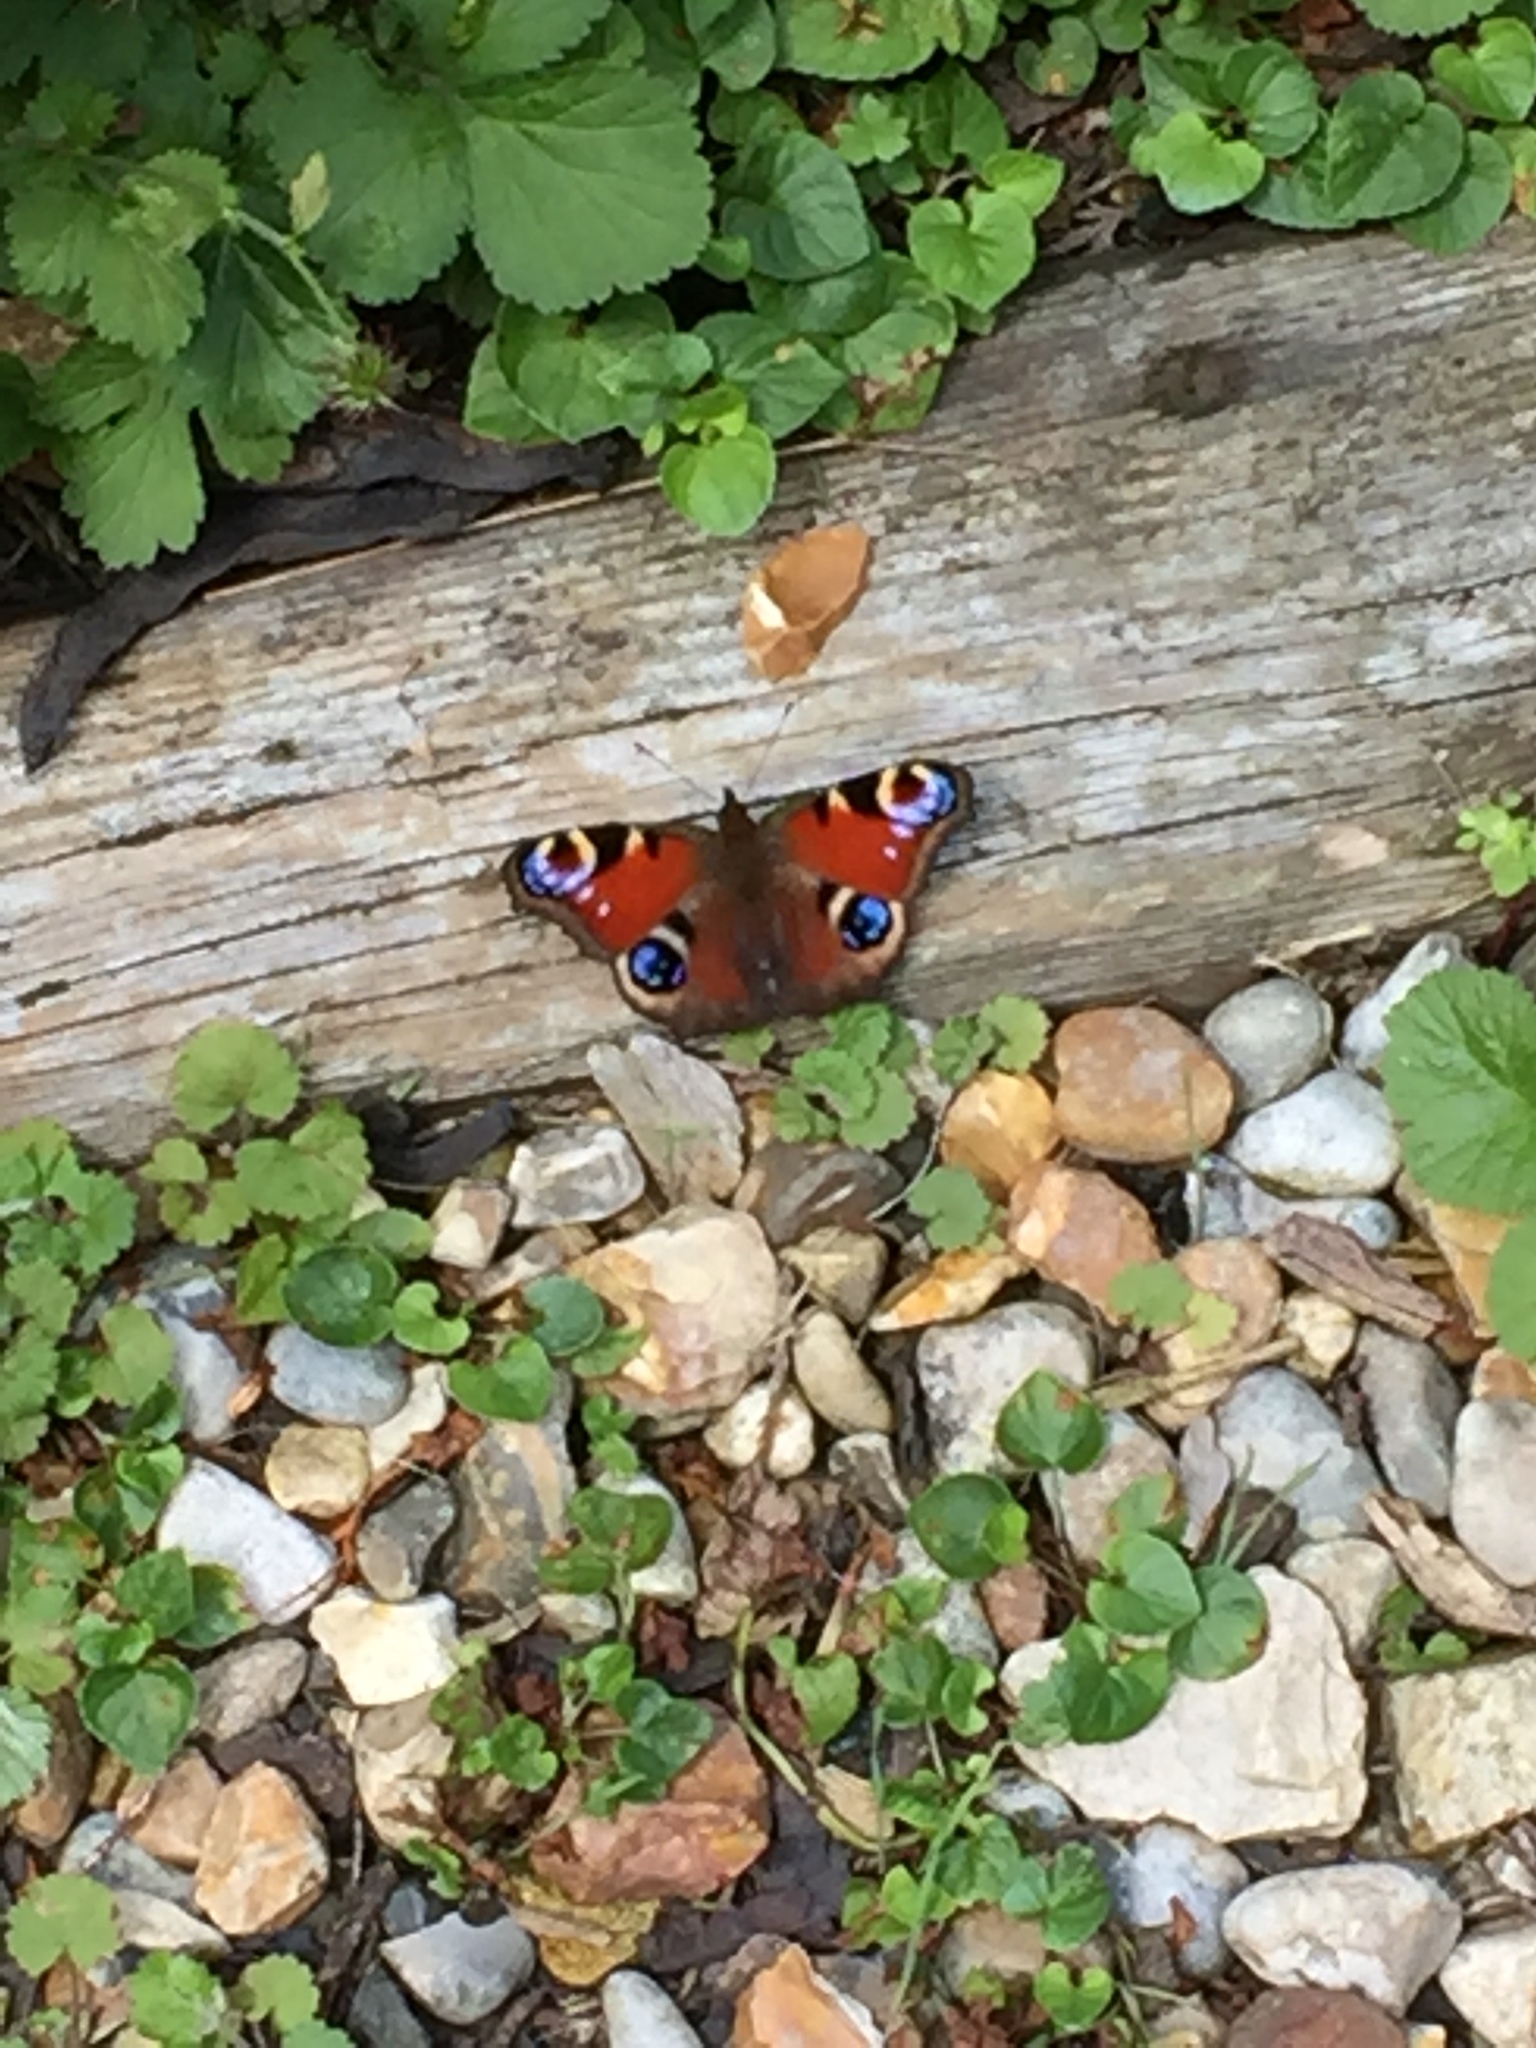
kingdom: Animalia
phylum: Arthropoda
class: Insecta
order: Lepidoptera
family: Nymphalidae
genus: Aglais
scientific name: Aglais io
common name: Peacock
